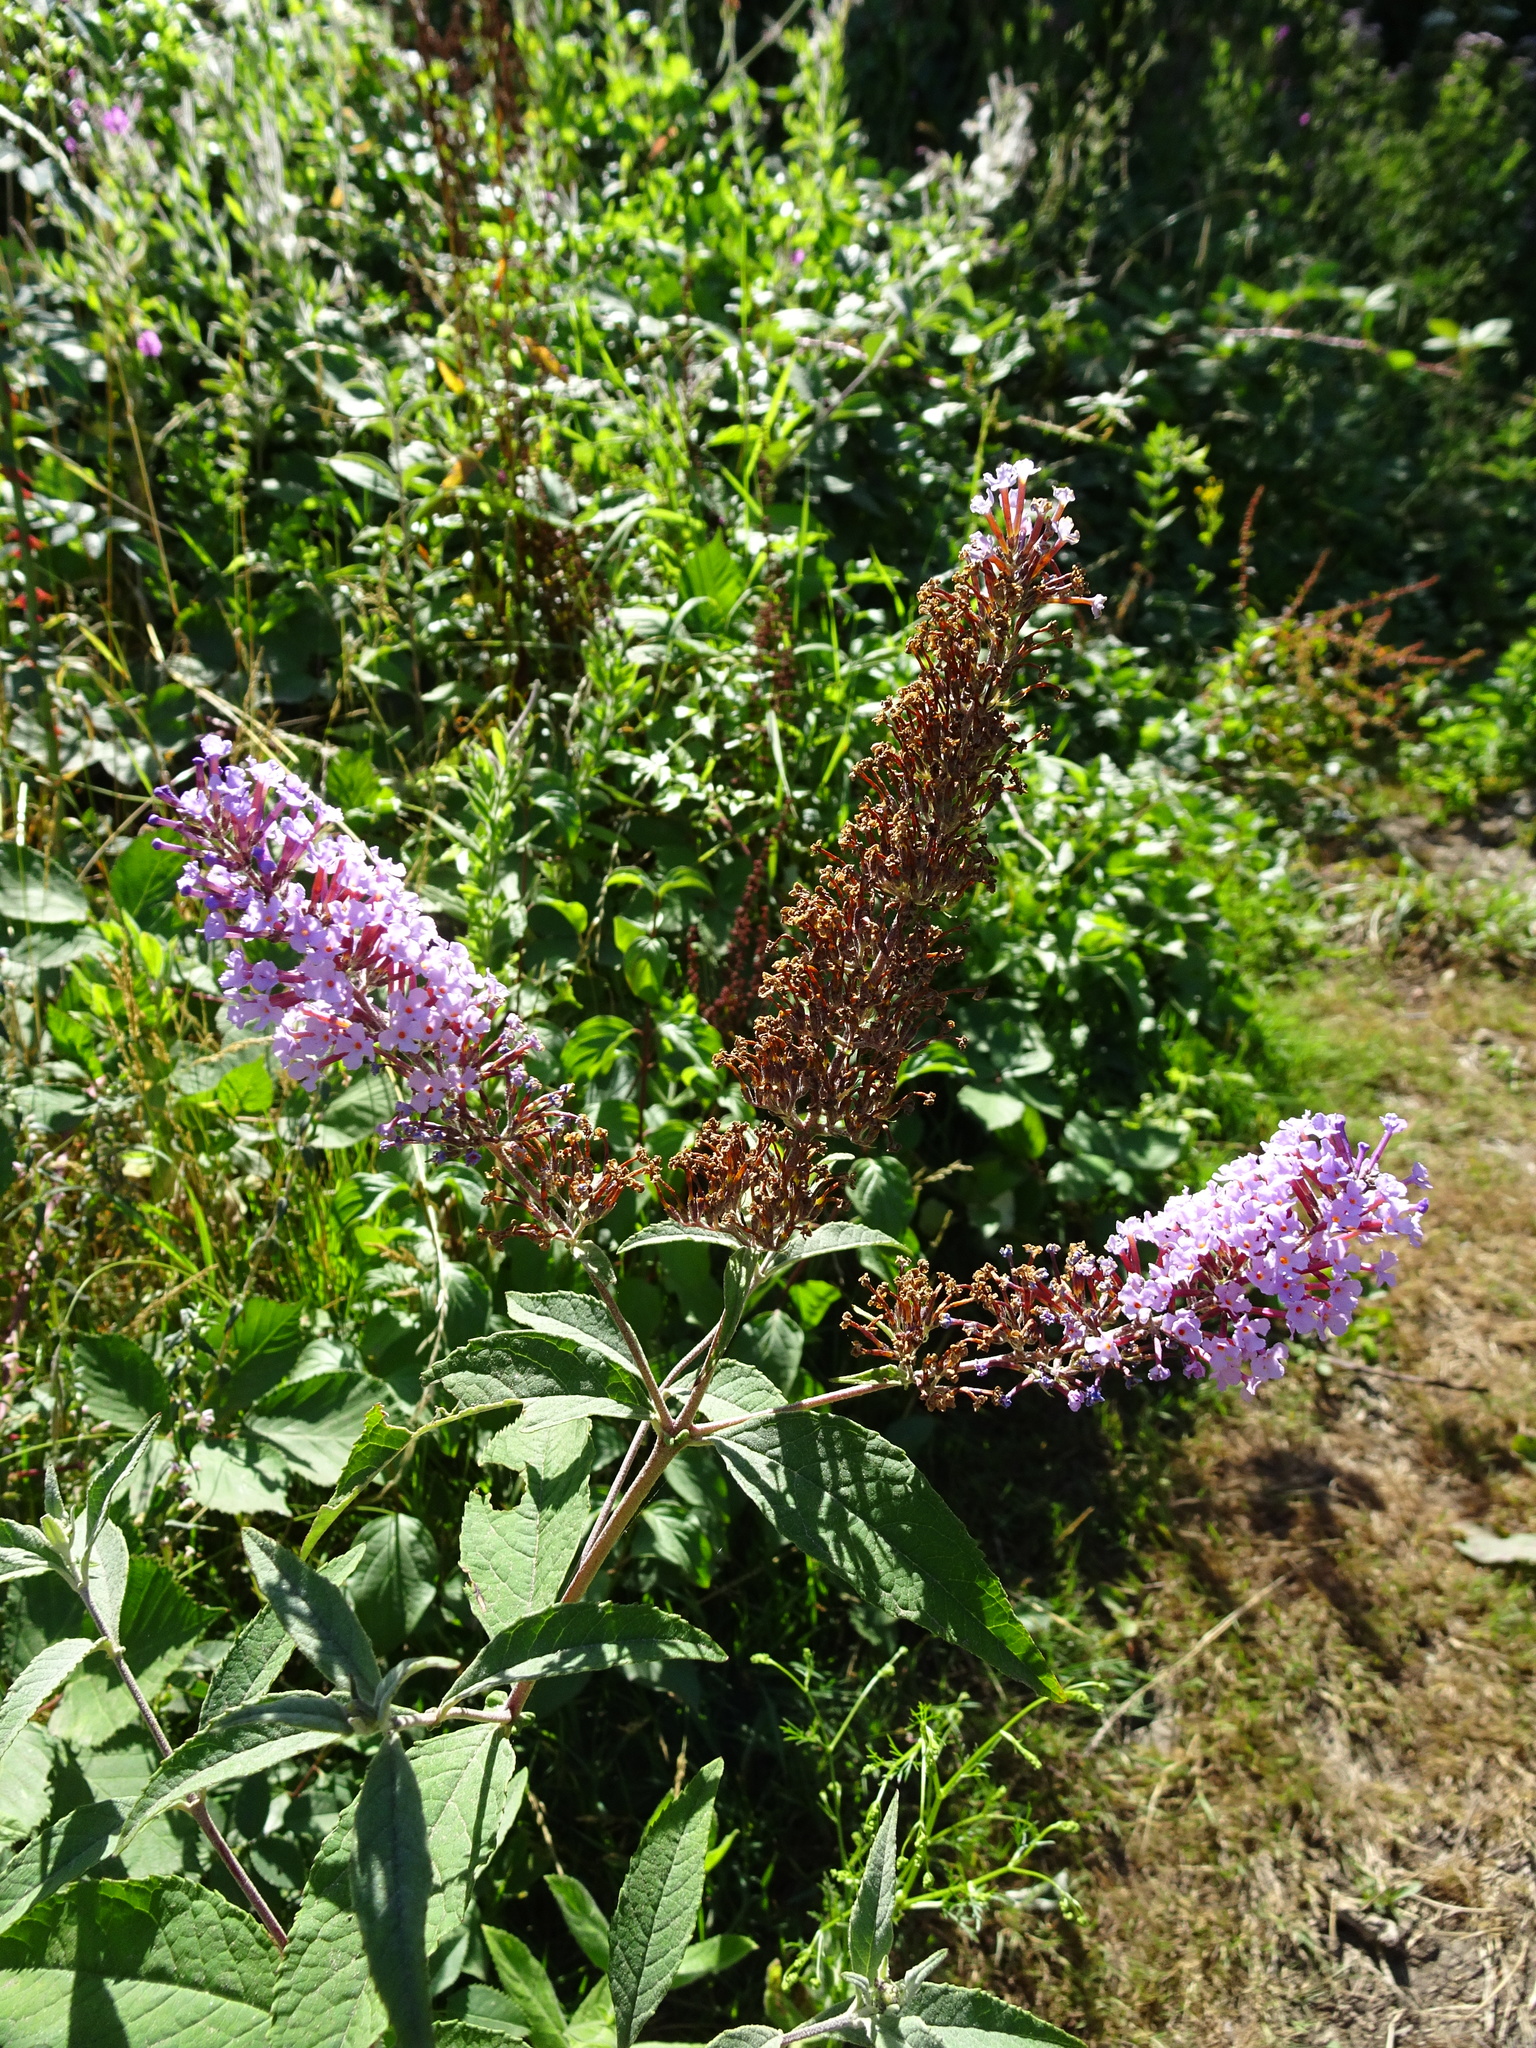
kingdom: Plantae
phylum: Tracheophyta
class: Magnoliopsida
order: Lamiales
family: Scrophulariaceae
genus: Buddleja
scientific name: Buddleja davidii
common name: Butterfly-bush
